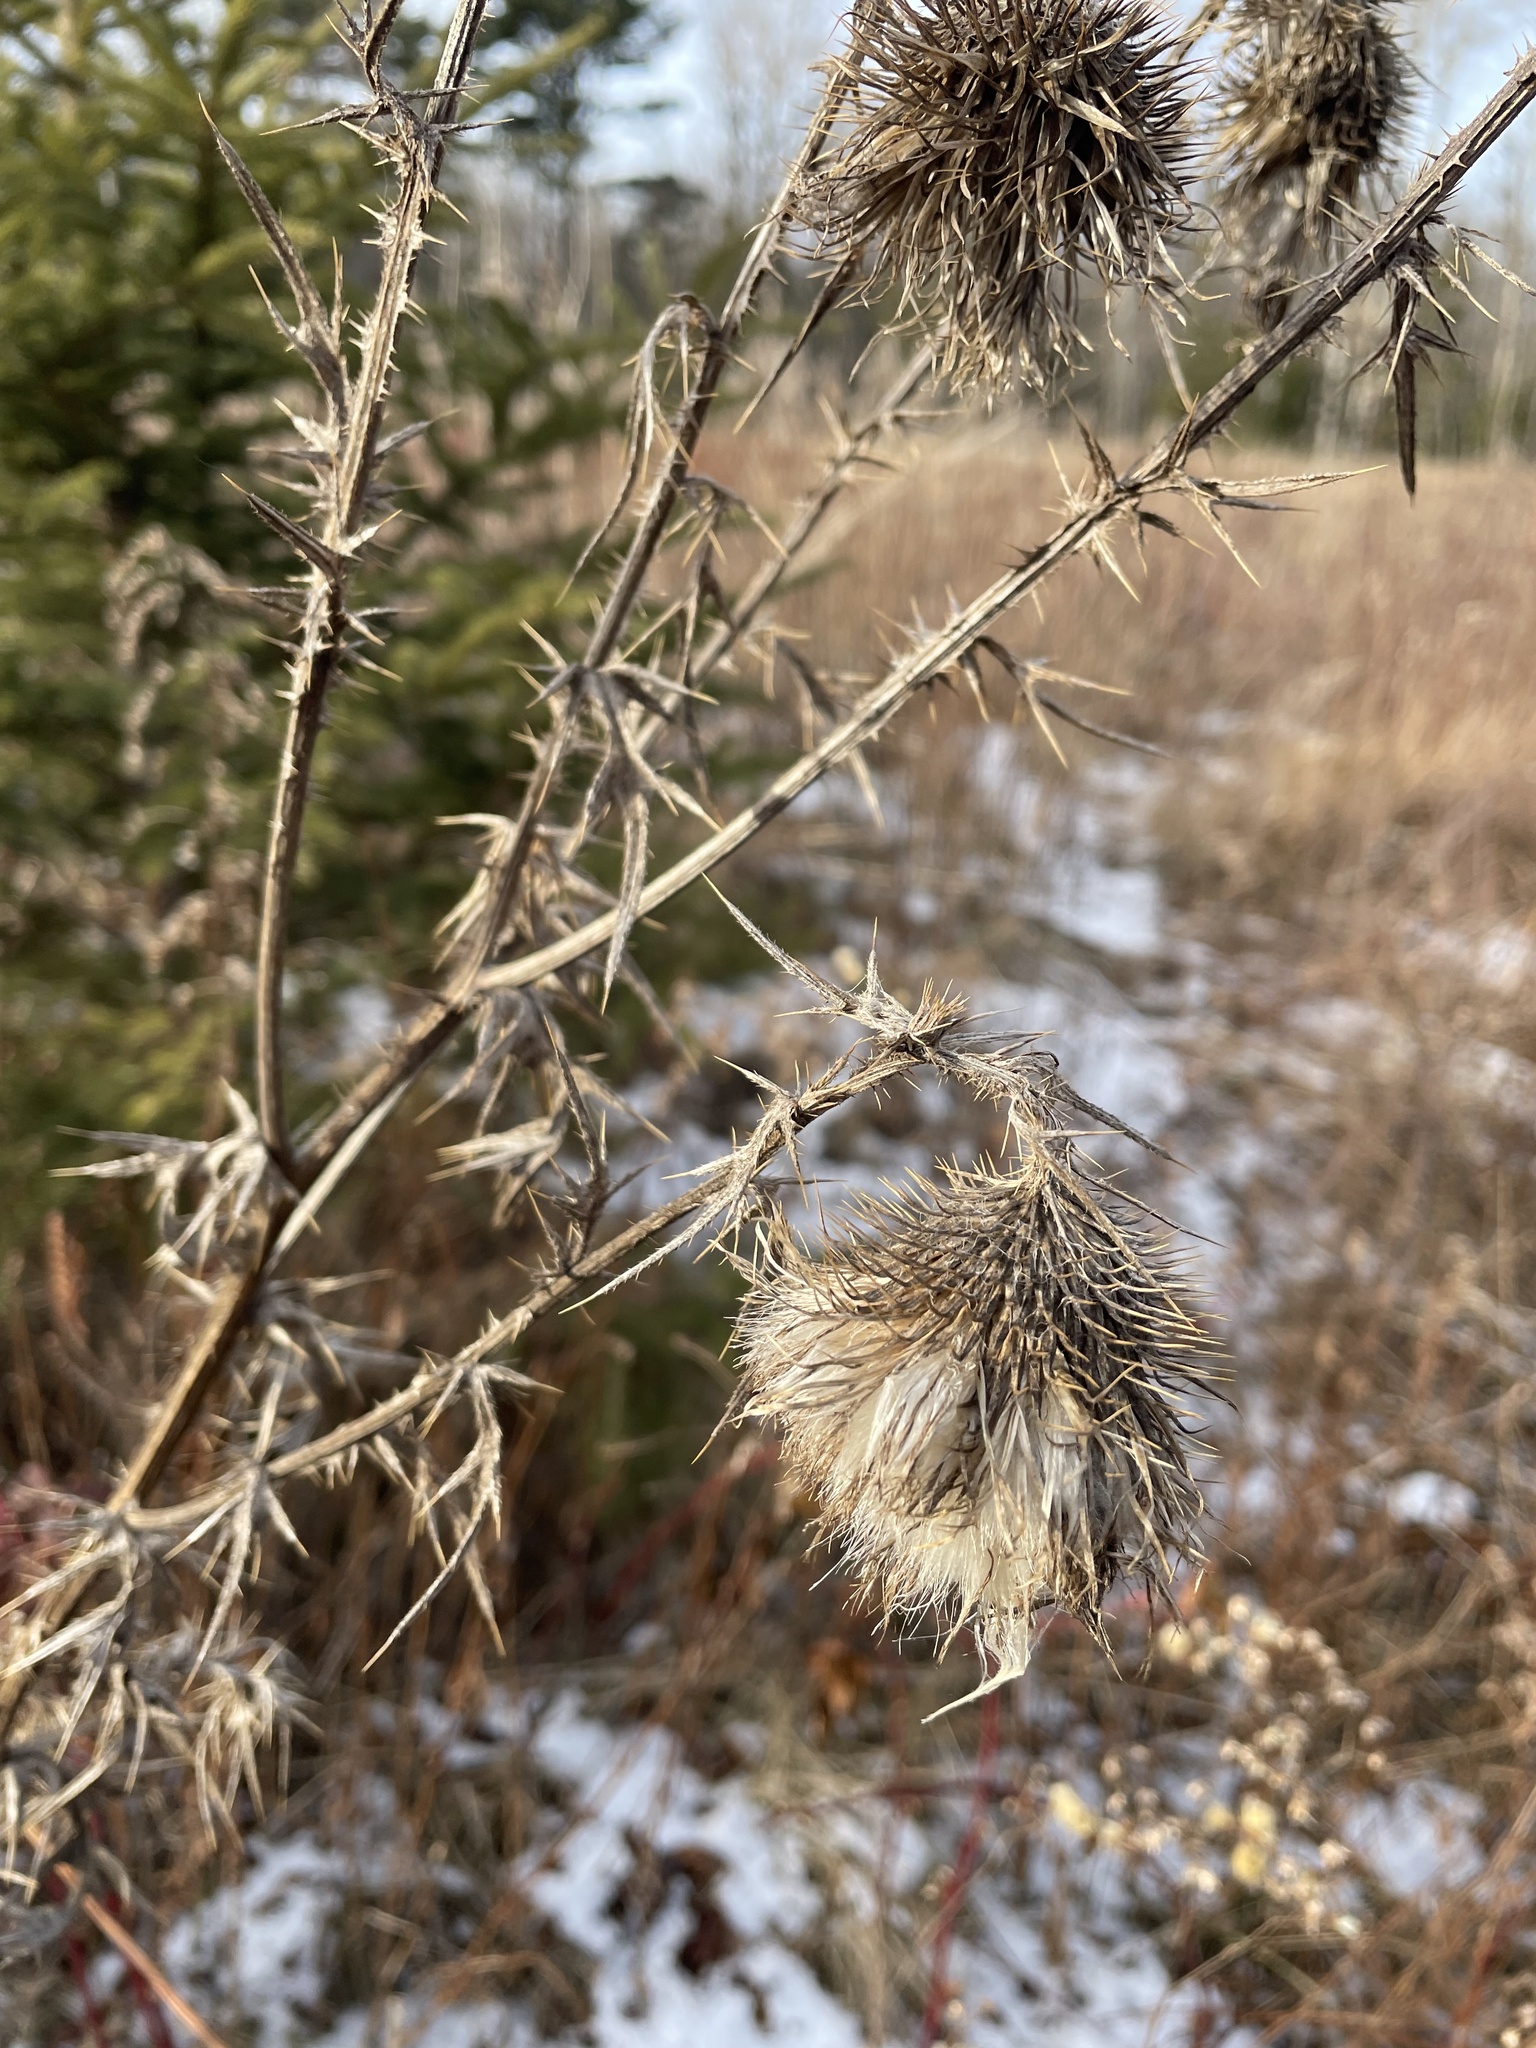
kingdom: Plantae
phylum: Tracheophyta
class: Magnoliopsida
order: Asterales
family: Asteraceae
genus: Cirsium
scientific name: Cirsium vulgare
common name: Bull thistle
